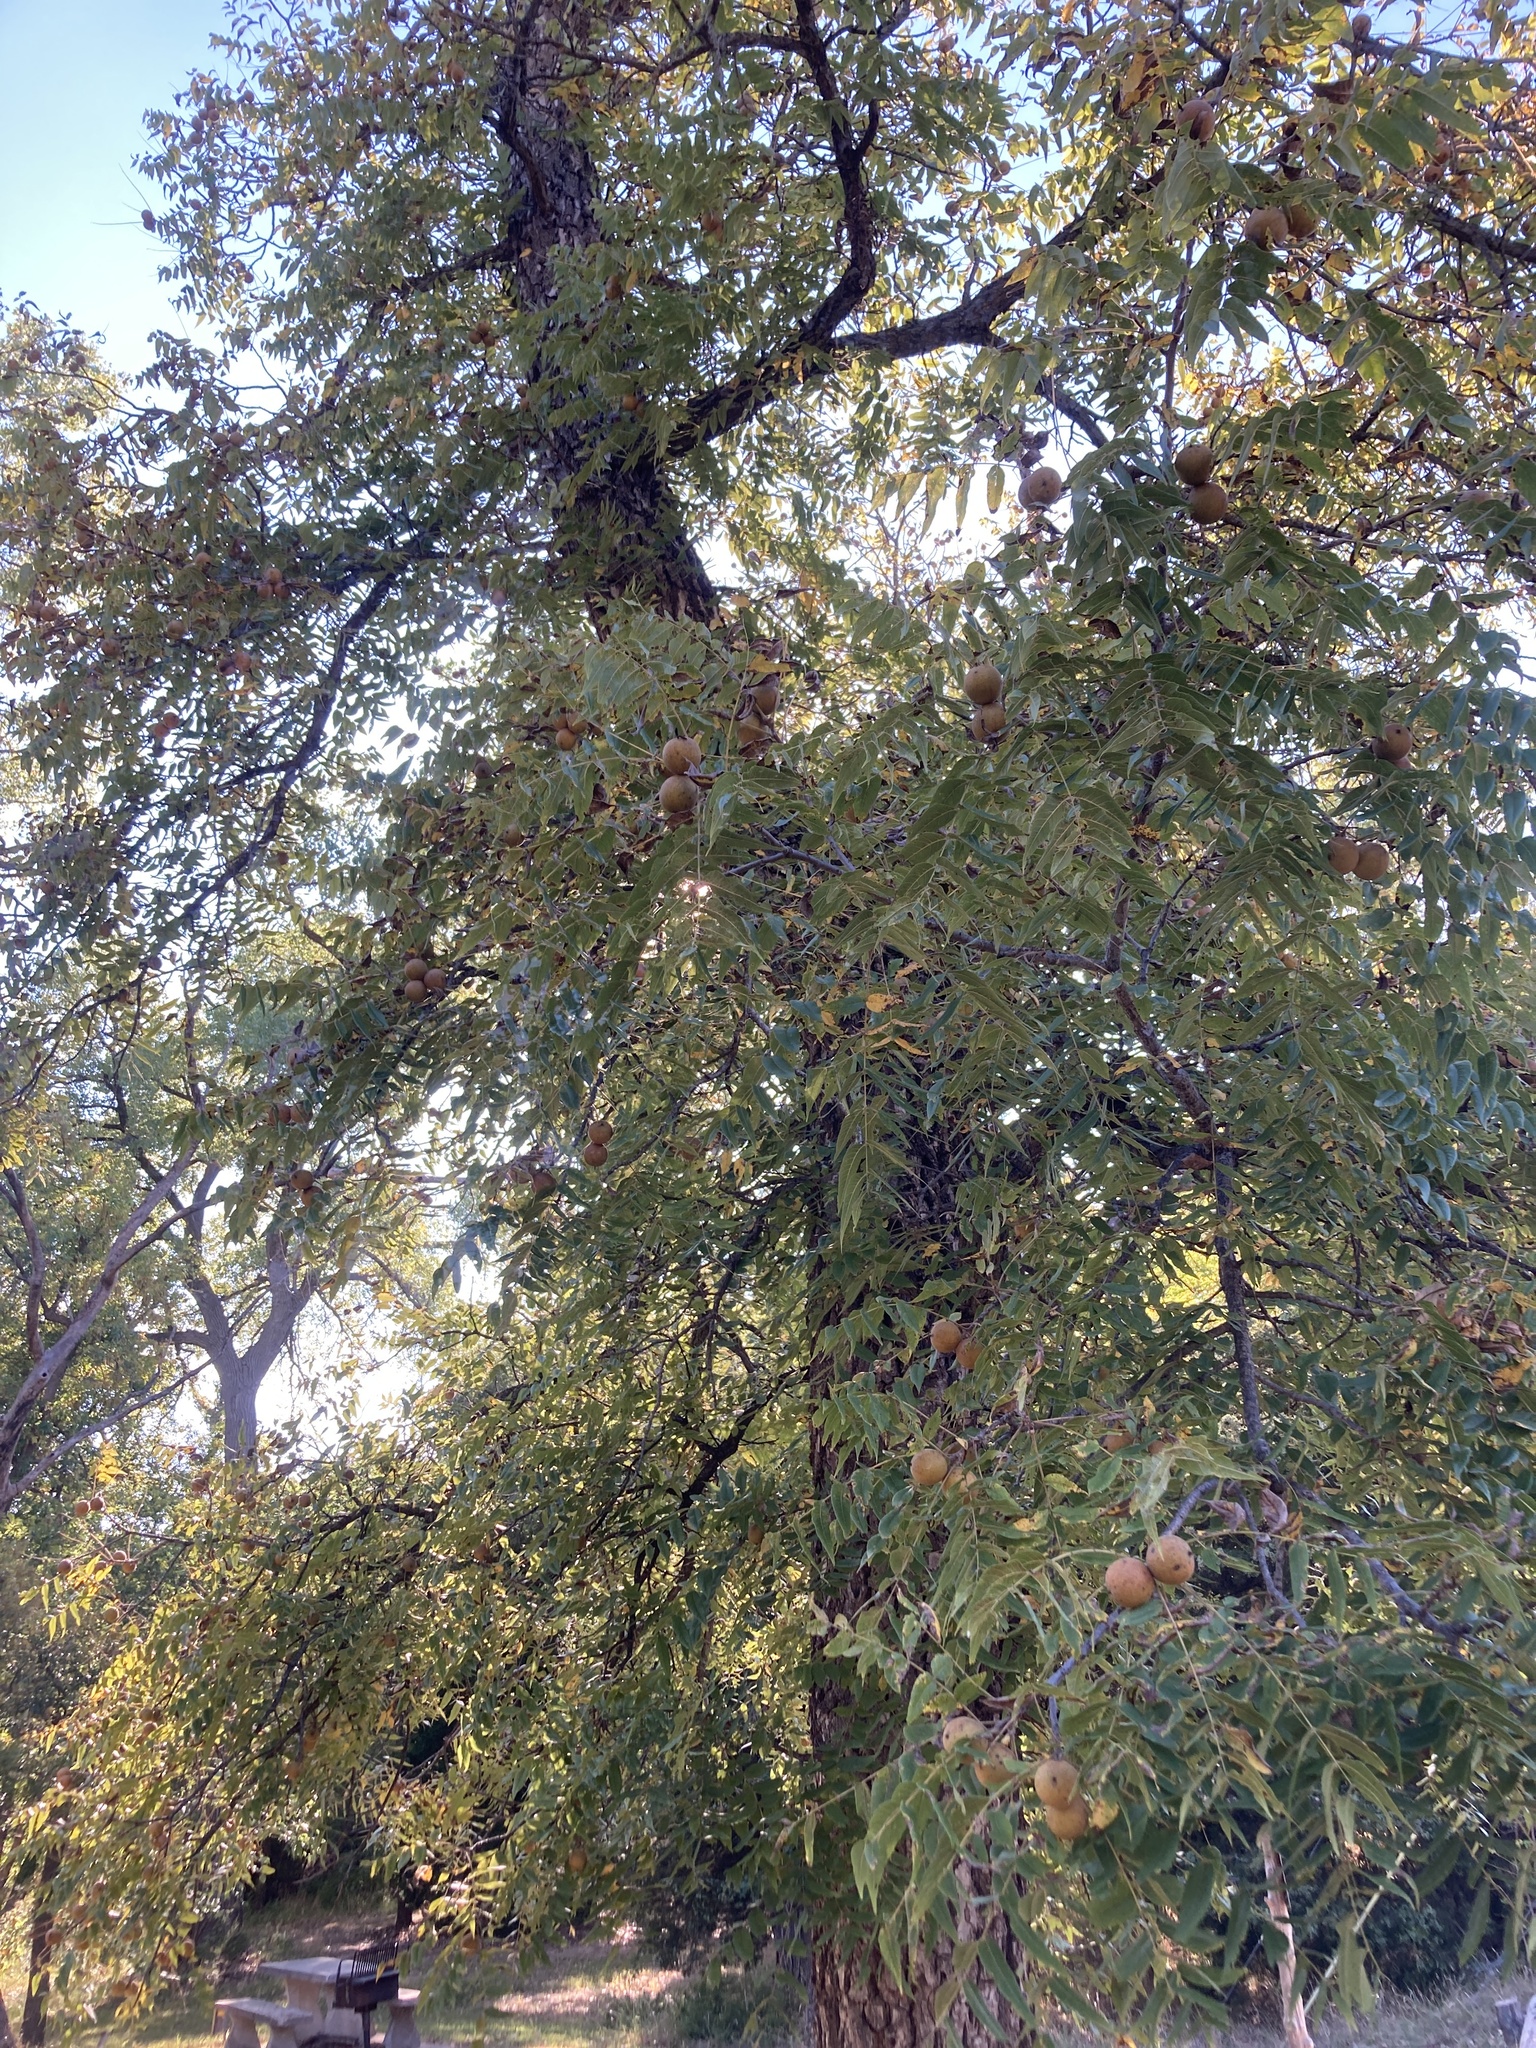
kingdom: Plantae
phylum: Tracheophyta
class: Magnoliopsida
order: Fagales
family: Juglandaceae
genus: Juglans
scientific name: Juglans nigra
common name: Black walnut
